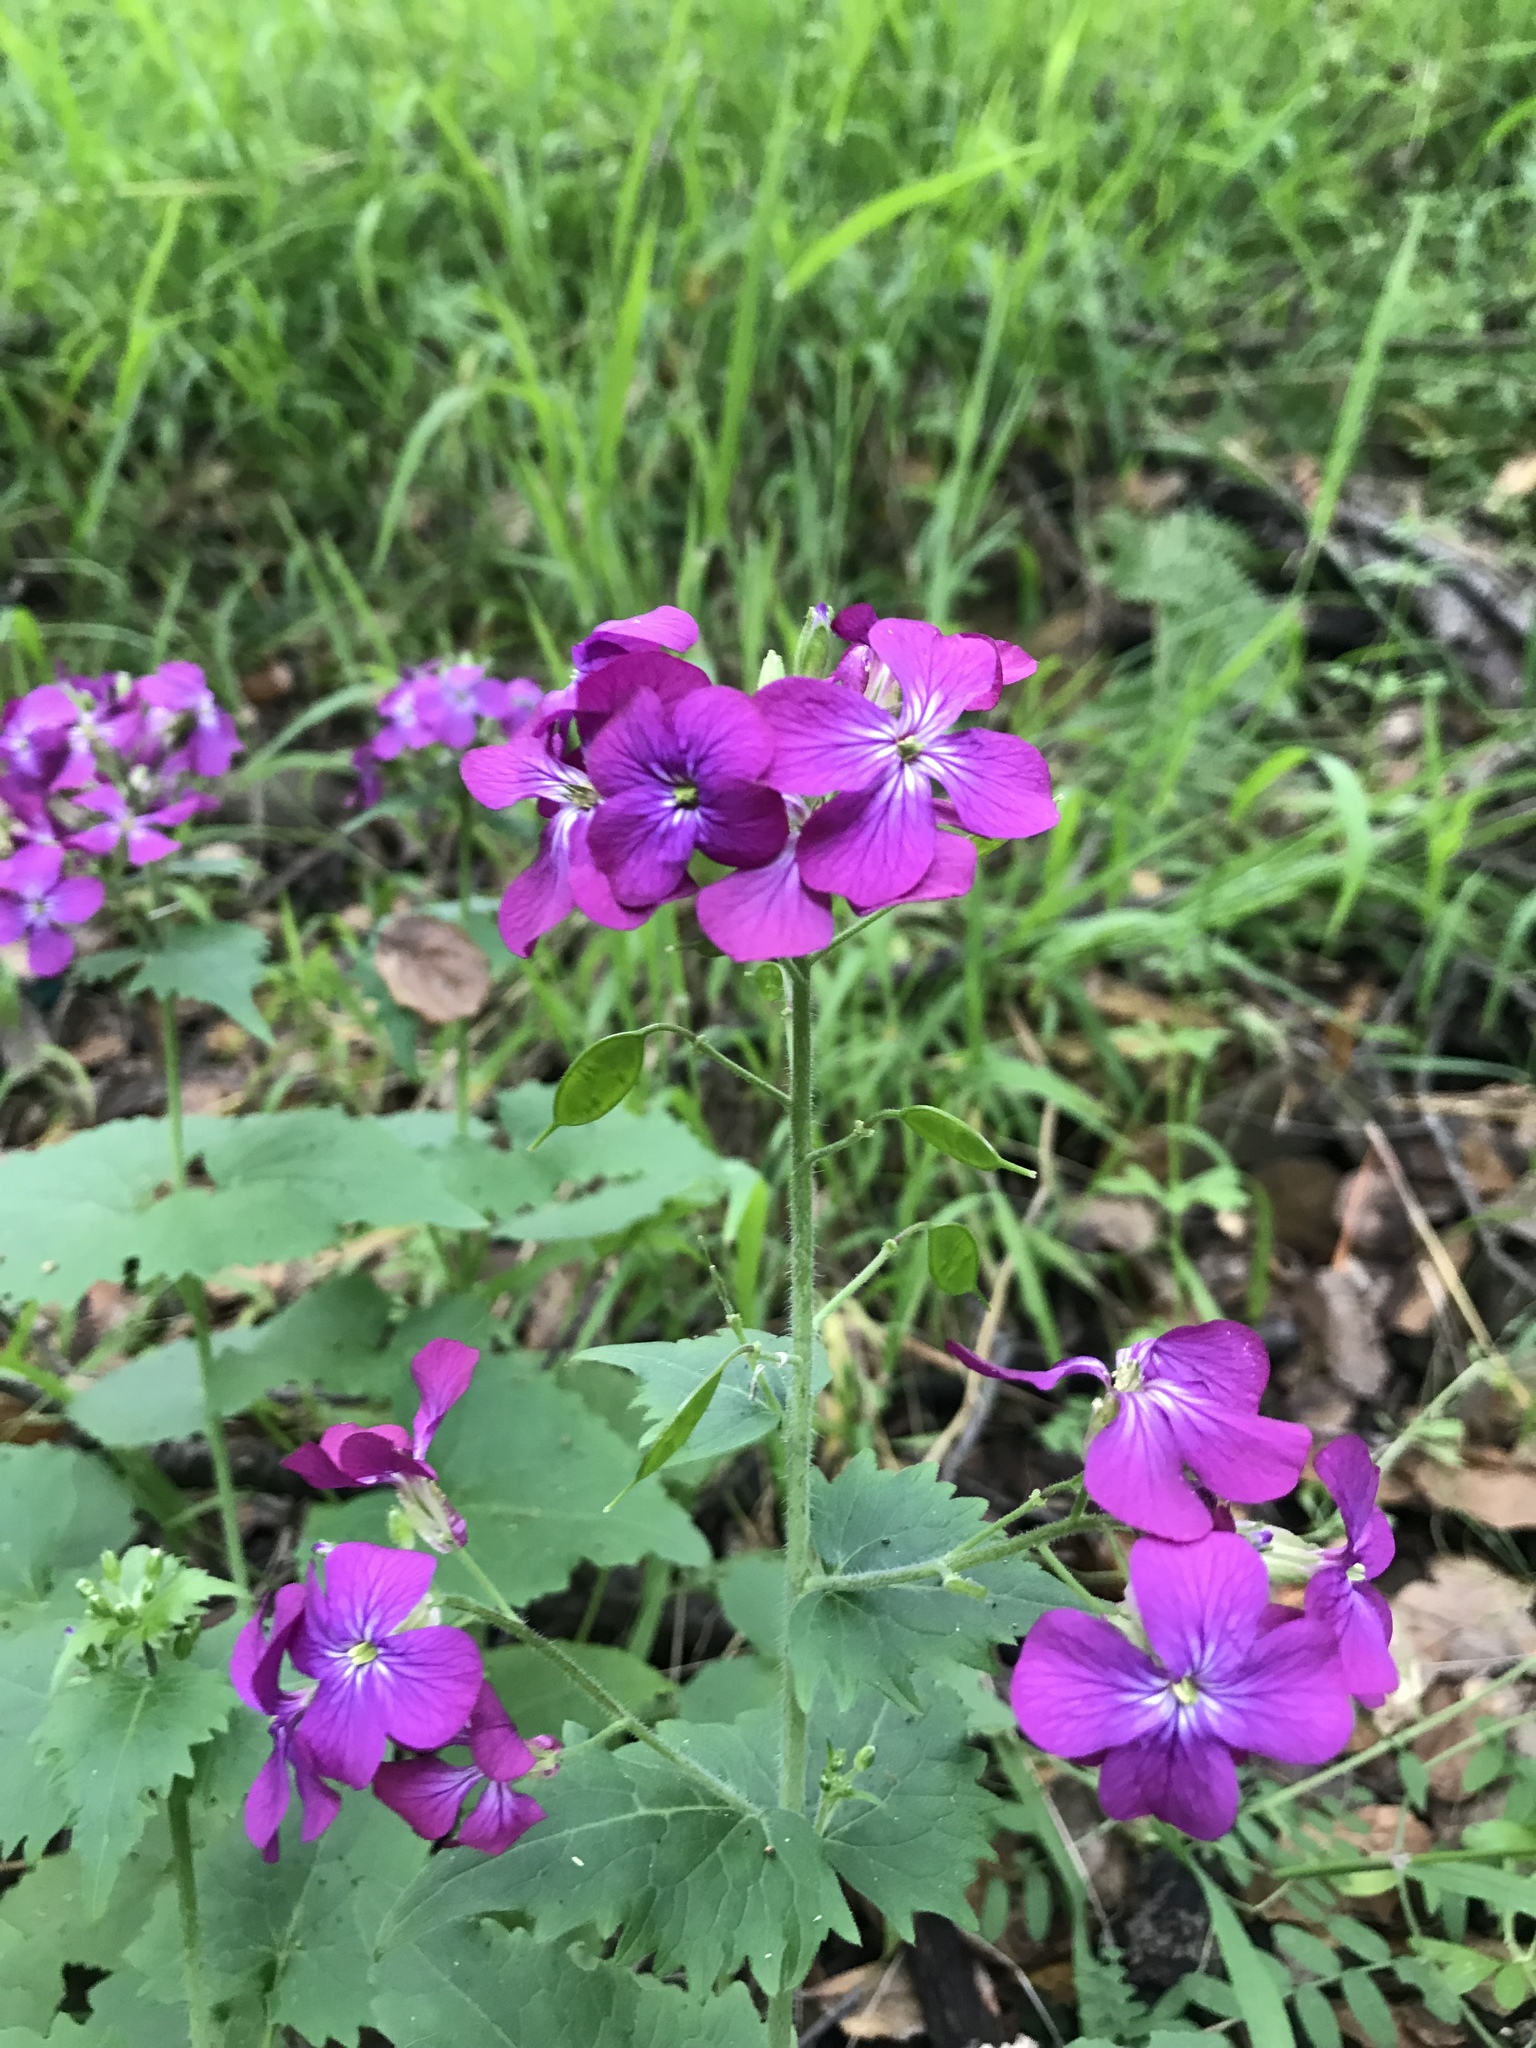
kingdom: Plantae
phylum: Tracheophyta
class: Magnoliopsida
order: Brassicales
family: Brassicaceae
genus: Lunaria
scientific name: Lunaria annua
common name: Honesty
